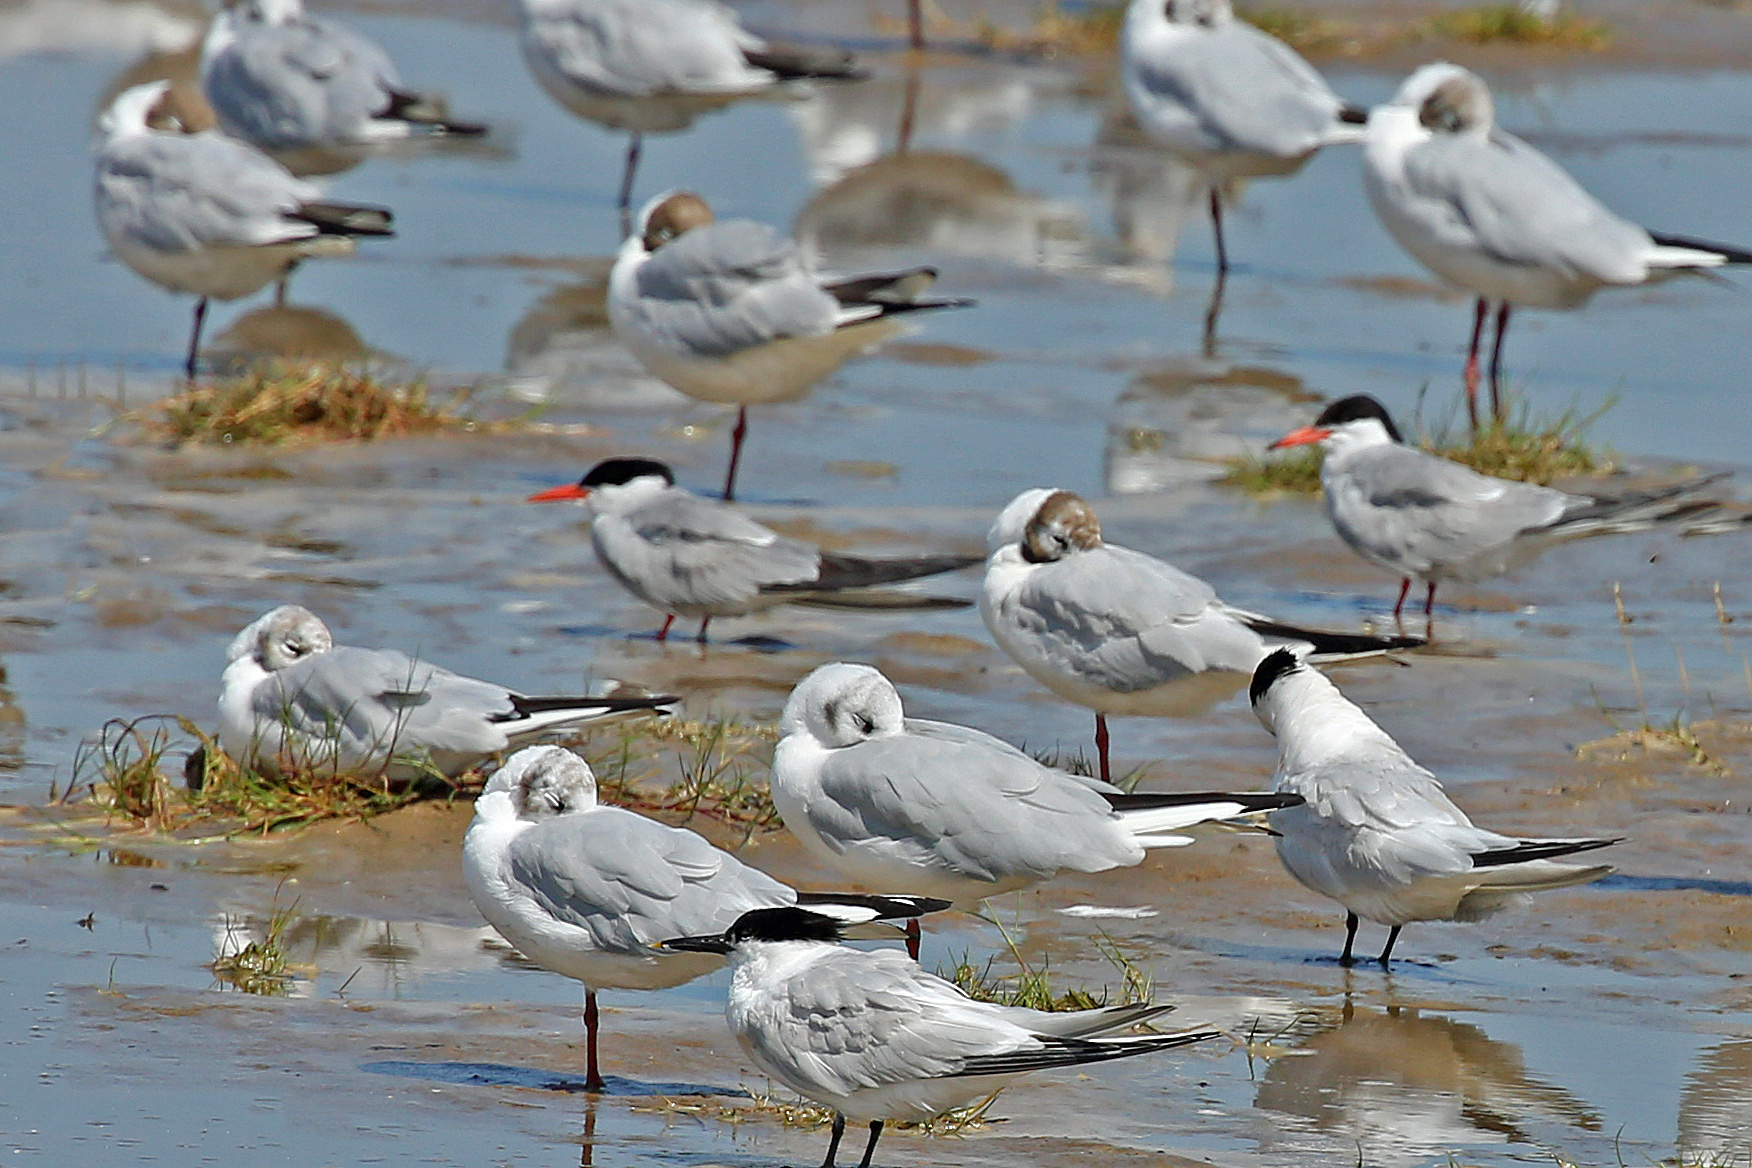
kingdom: Animalia
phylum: Chordata
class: Aves
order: Charadriiformes
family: Laridae
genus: Sterna
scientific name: Sterna paradisaea
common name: Arctic tern
